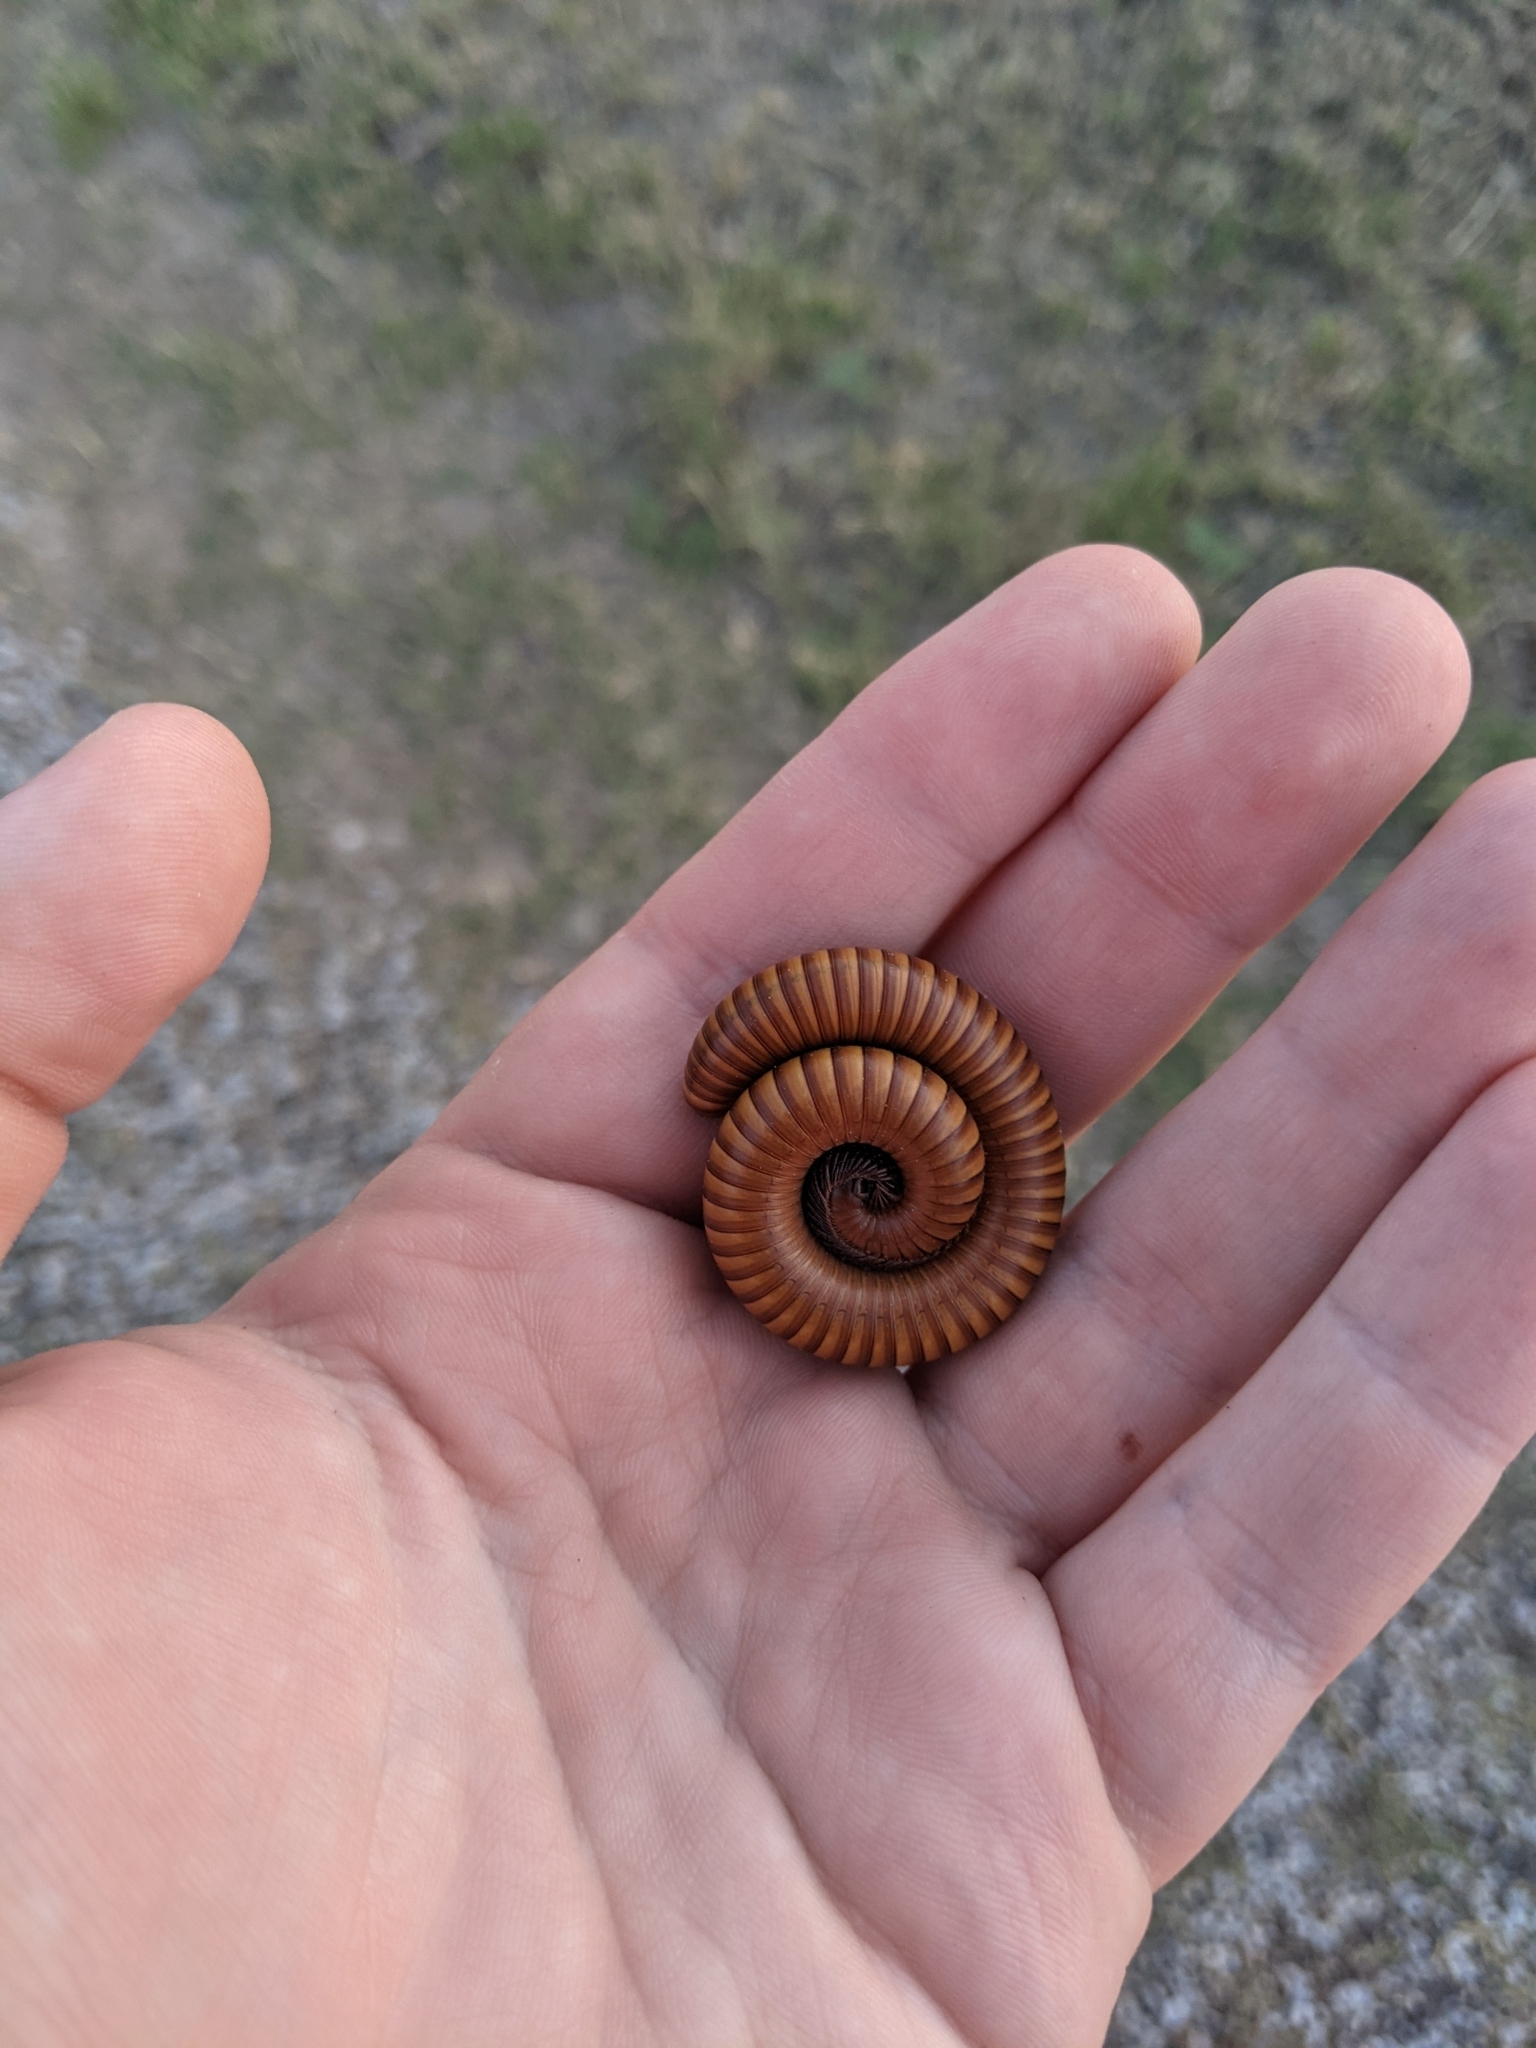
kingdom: Animalia
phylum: Arthropoda
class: Diplopoda
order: Spirostreptida
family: Spirostreptidae
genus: Orthoporus
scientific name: Orthoporus ornatus
